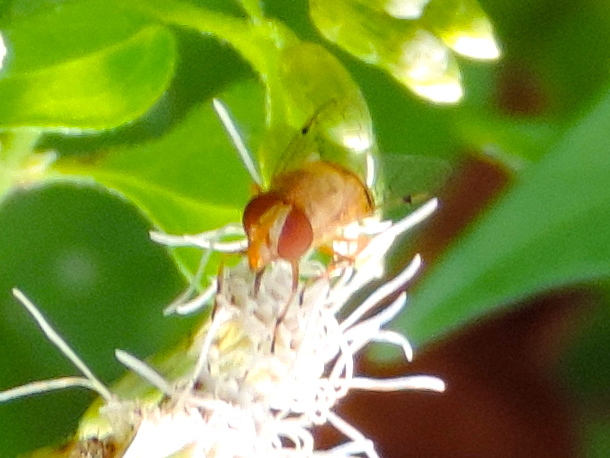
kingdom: Animalia
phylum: Arthropoda
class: Insecta
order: Diptera
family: Syrphidae
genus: Copestylum
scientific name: Copestylum sexmaculatum
